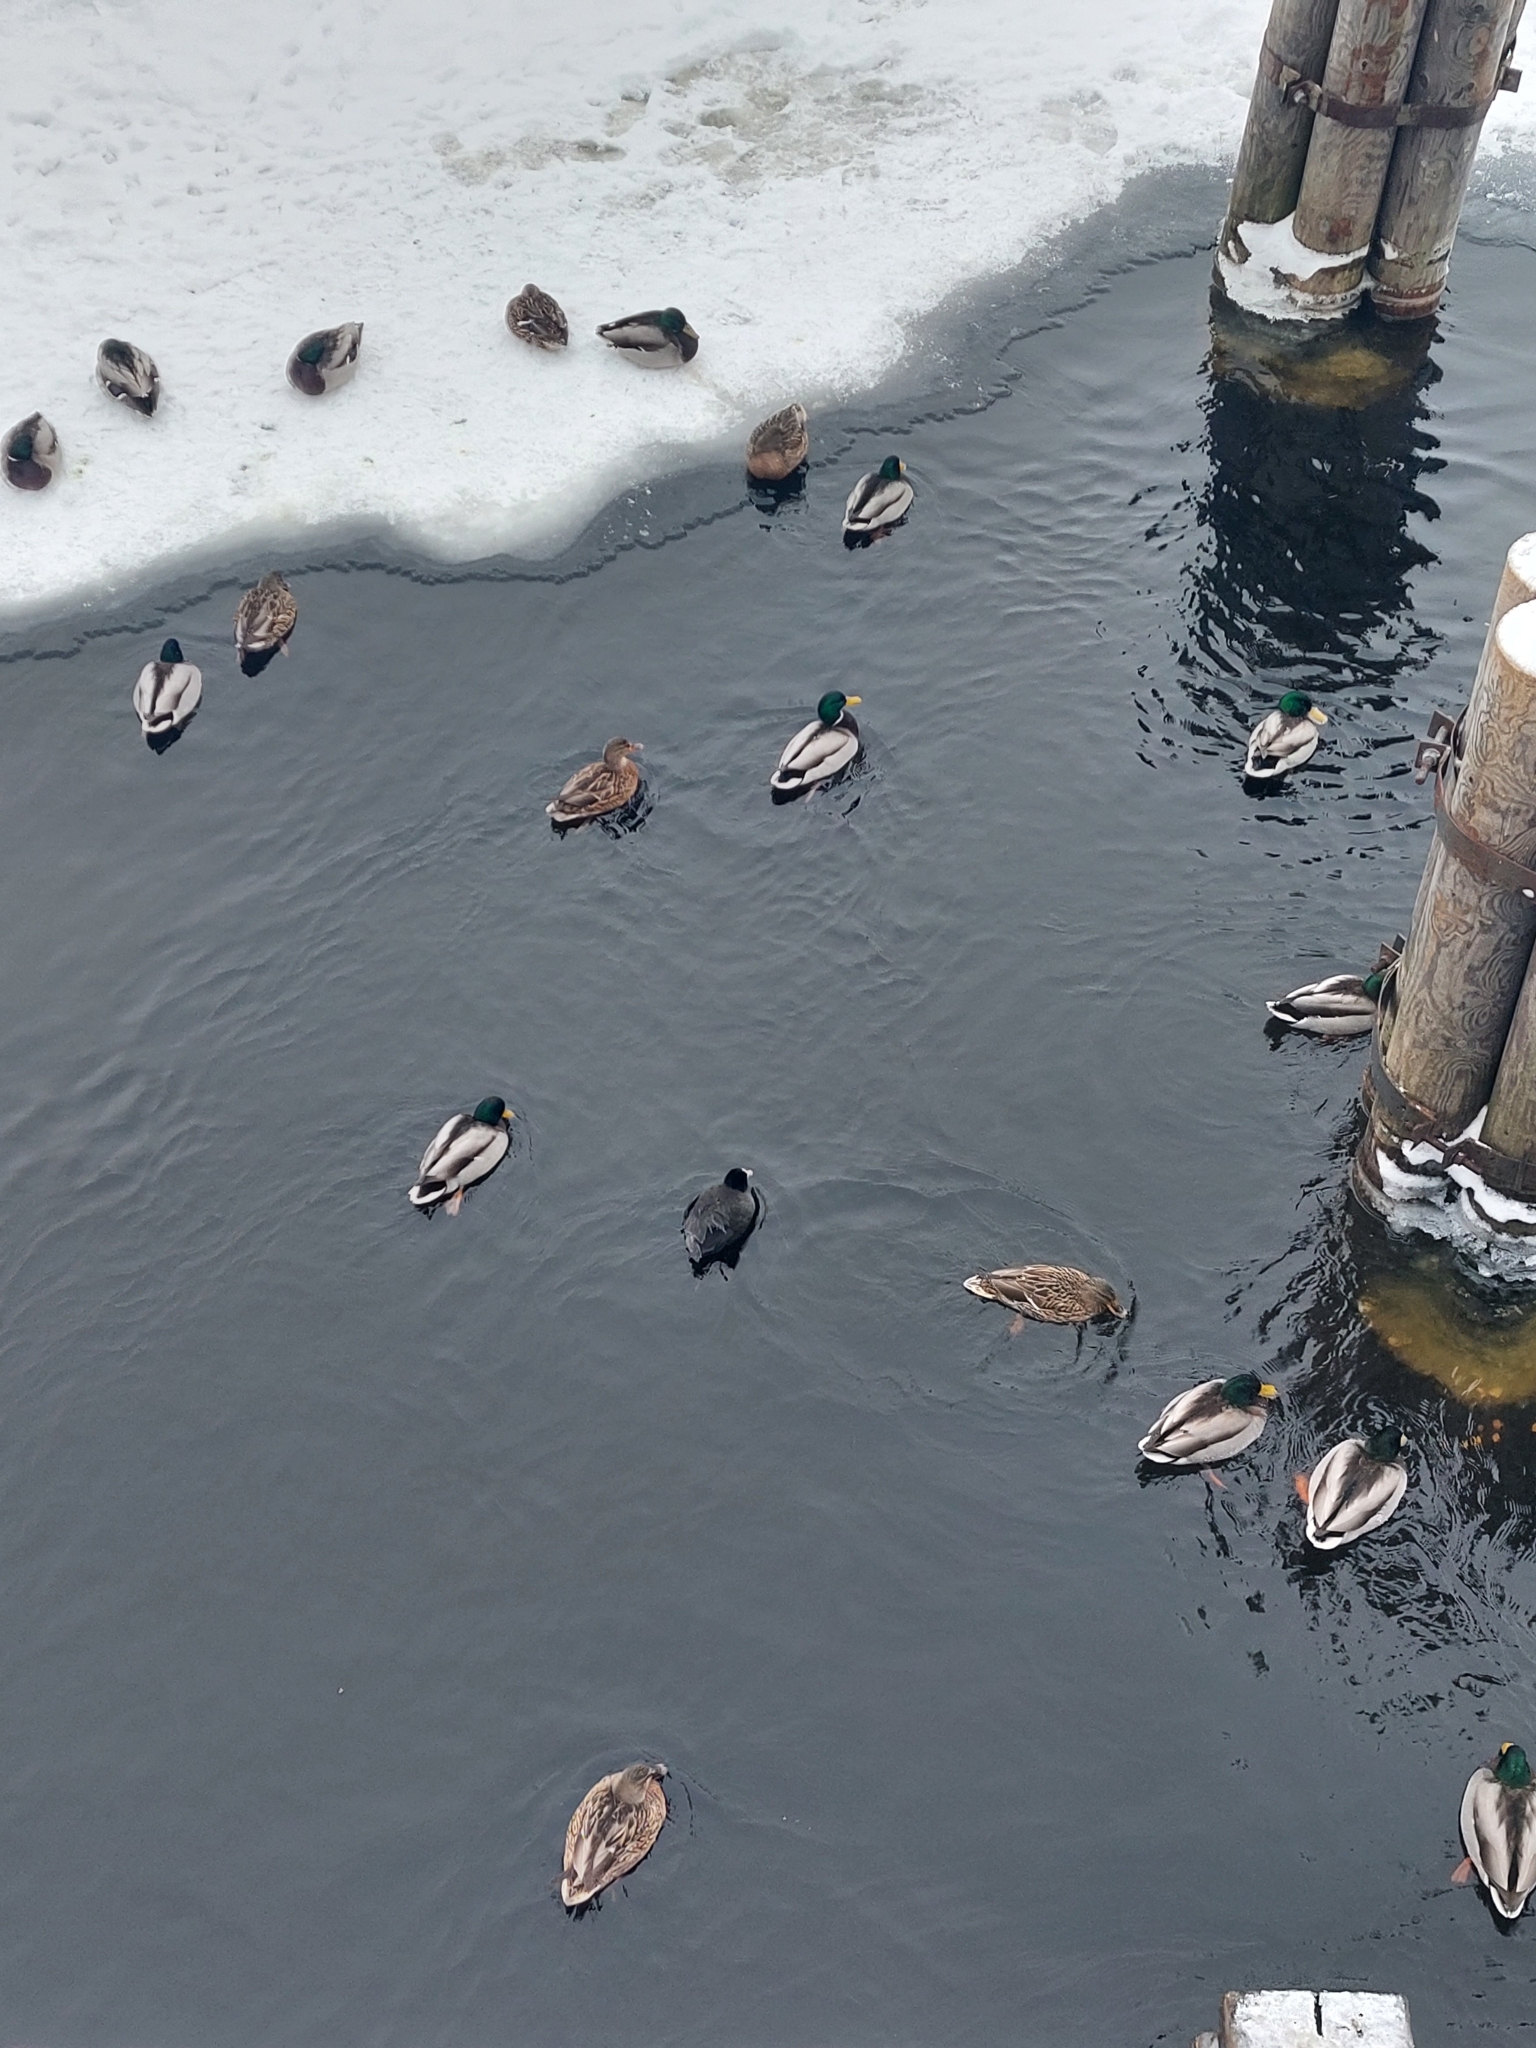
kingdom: Animalia
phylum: Chordata
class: Aves
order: Gruiformes
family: Rallidae
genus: Fulica
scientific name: Fulica atra
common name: Eurasian coot
